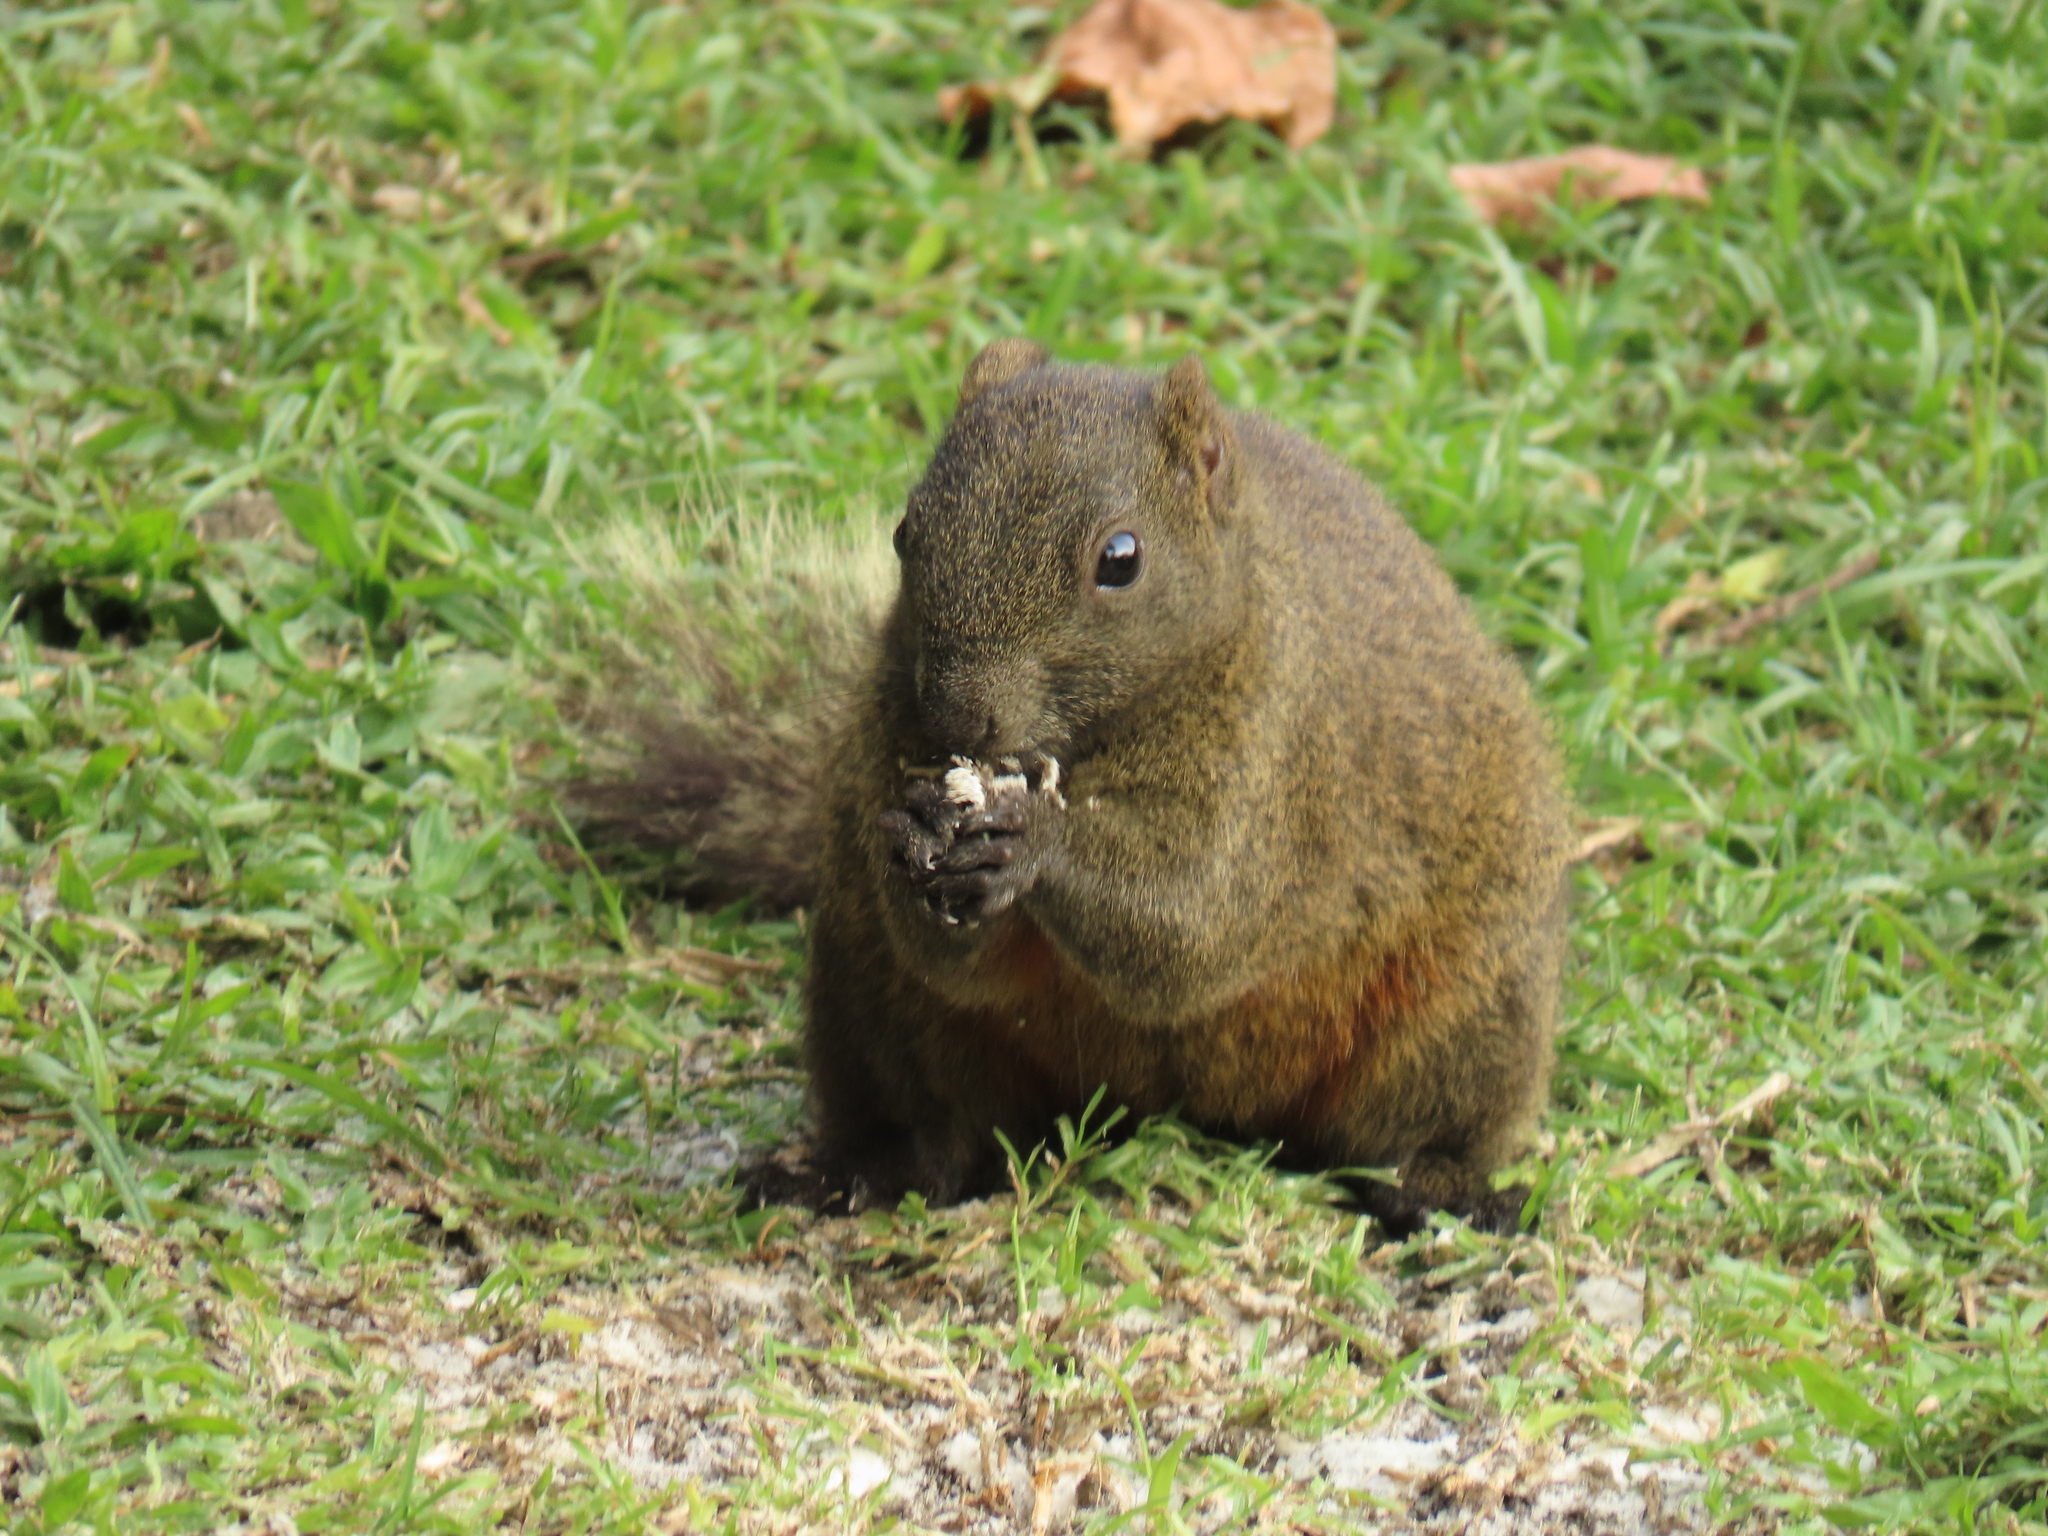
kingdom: Animalia
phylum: Chordata
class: Mammalia
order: Rodentia
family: Sciuridae
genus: Callosciurus
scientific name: Callosciurus erythraeus
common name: Pallas's squirrel
